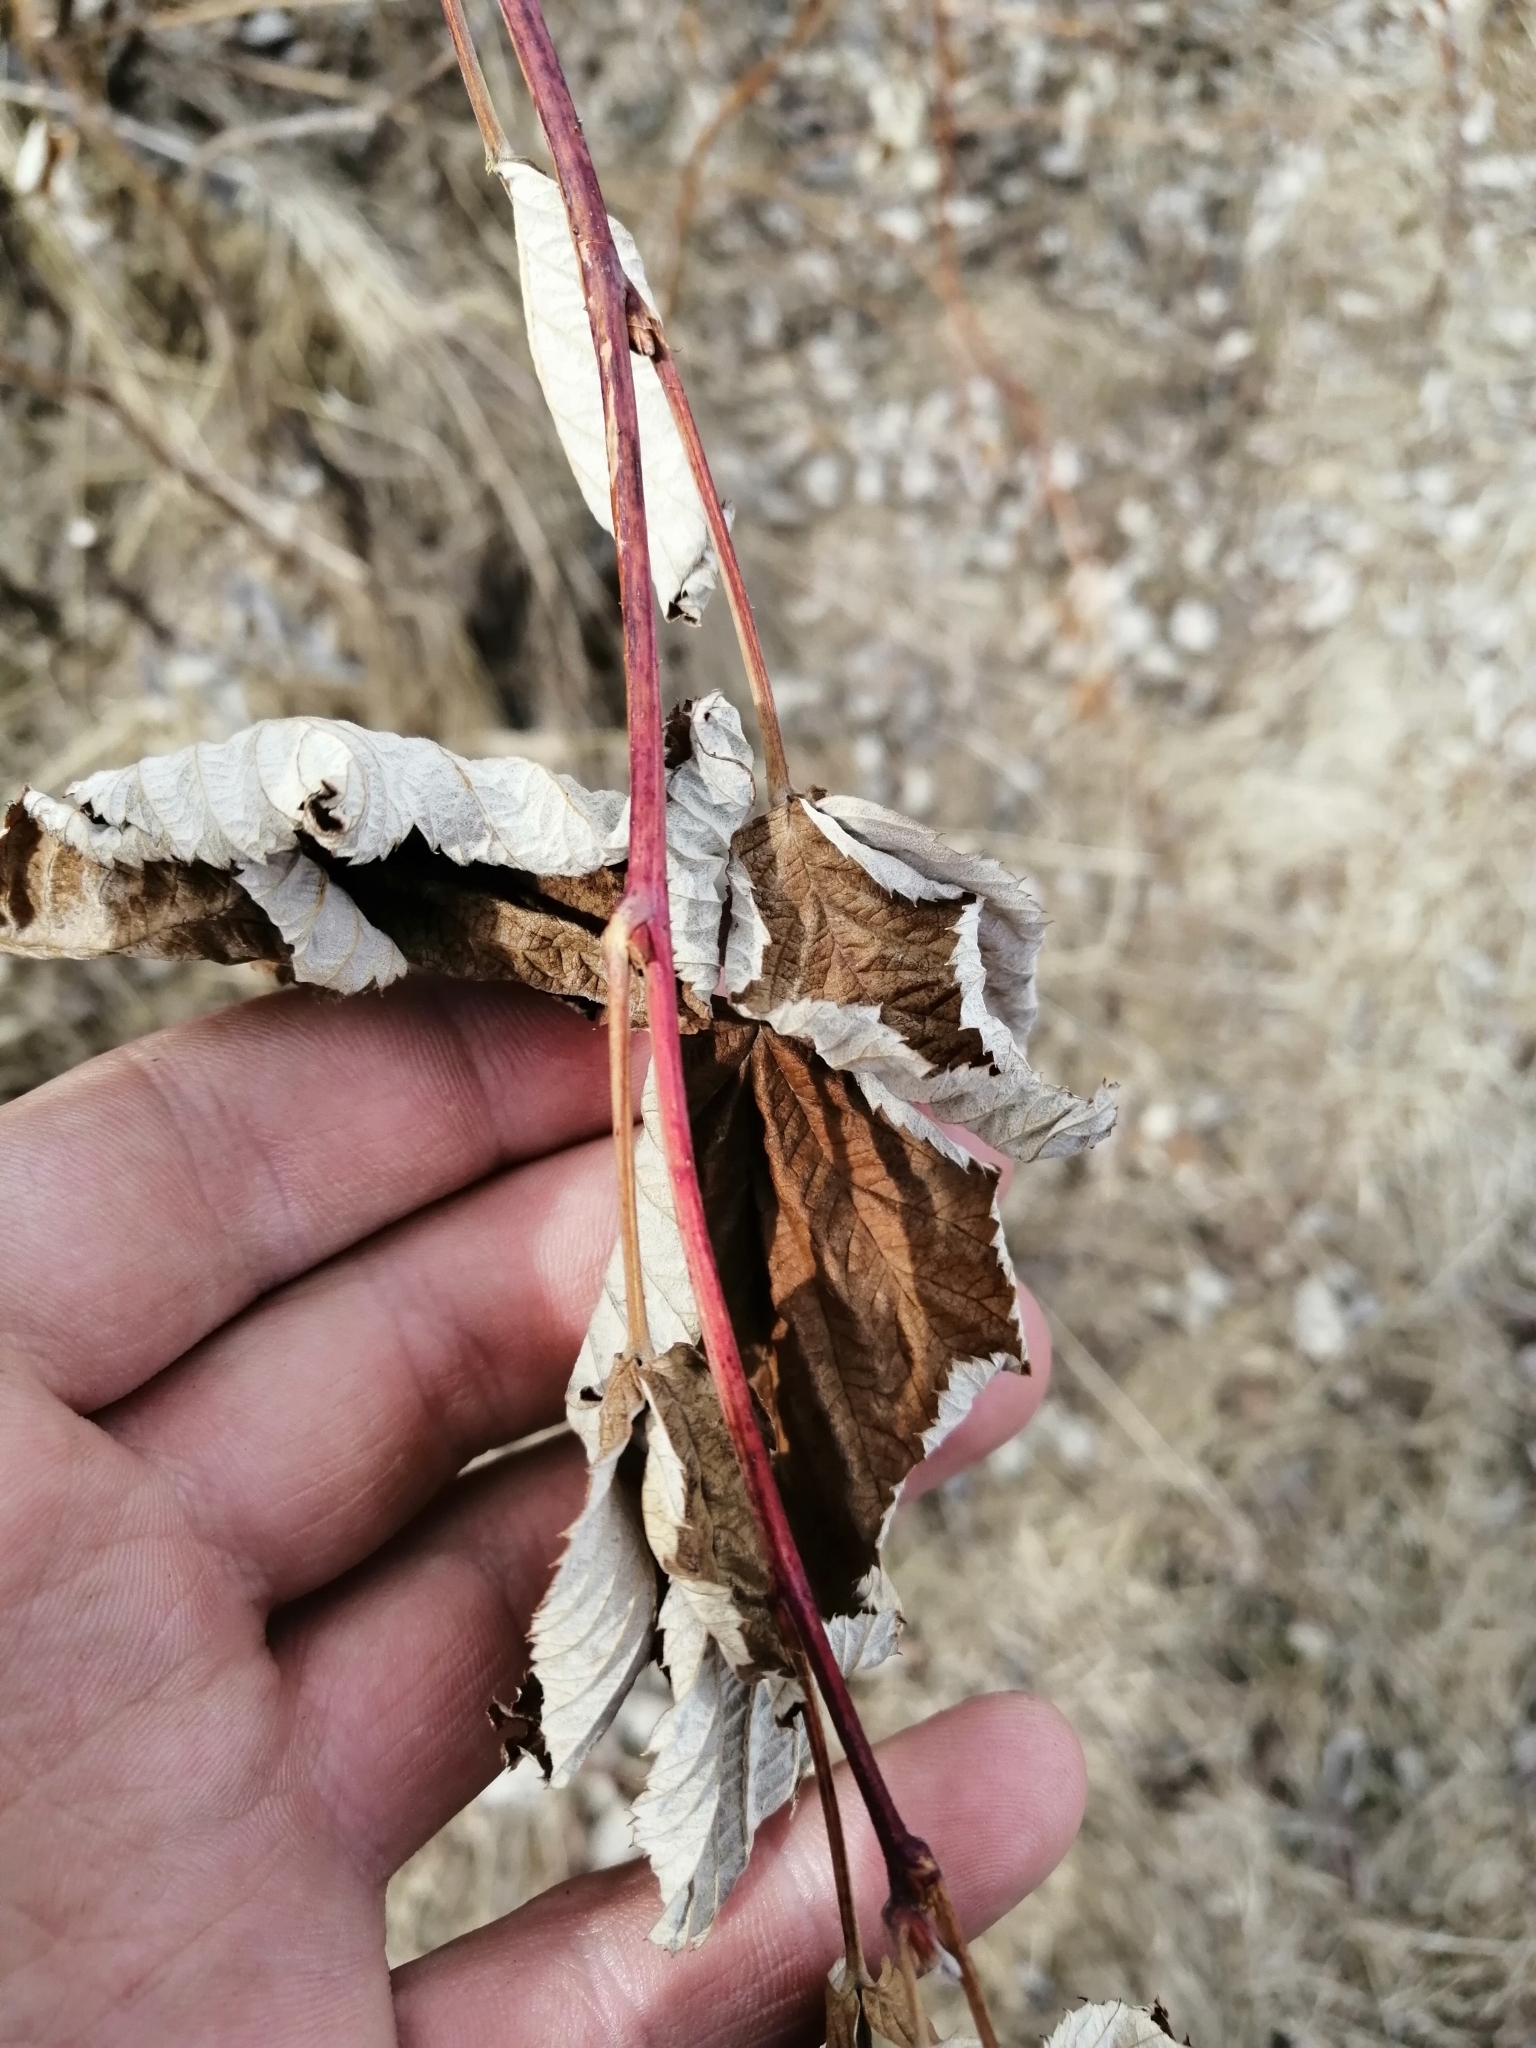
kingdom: Plantae
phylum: Tracheophyta
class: Magnoliopsida
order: Rosales
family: Rosaceae
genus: Rubus
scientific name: Rubus idaeus
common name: Raspberry
